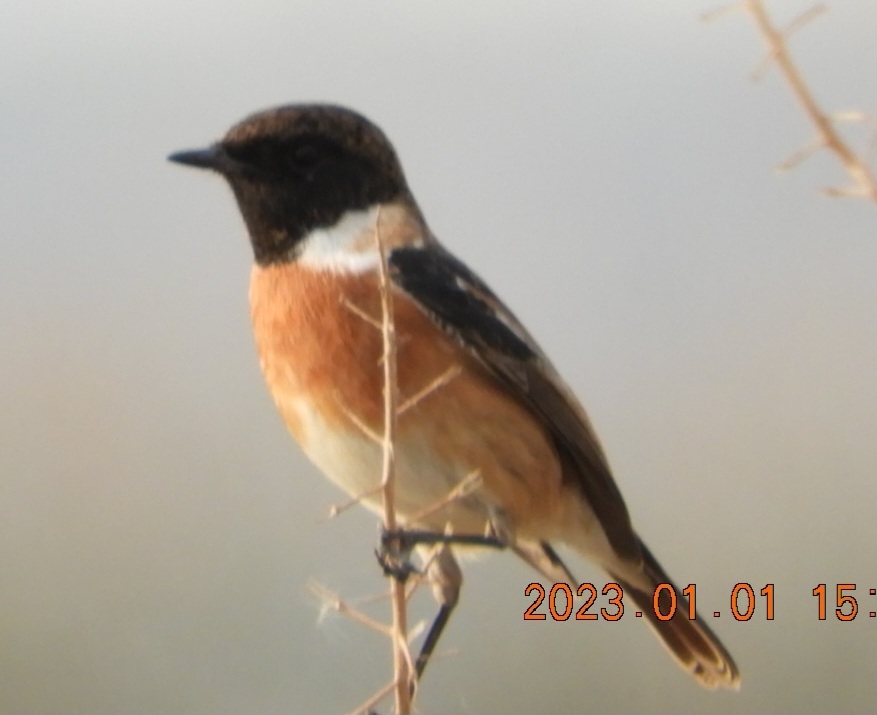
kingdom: Animalia
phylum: Chordata
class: Aves
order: Passeriformes
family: Muscicapidae
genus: Saxicola
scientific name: Saxicola rubicola
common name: European stonechat
